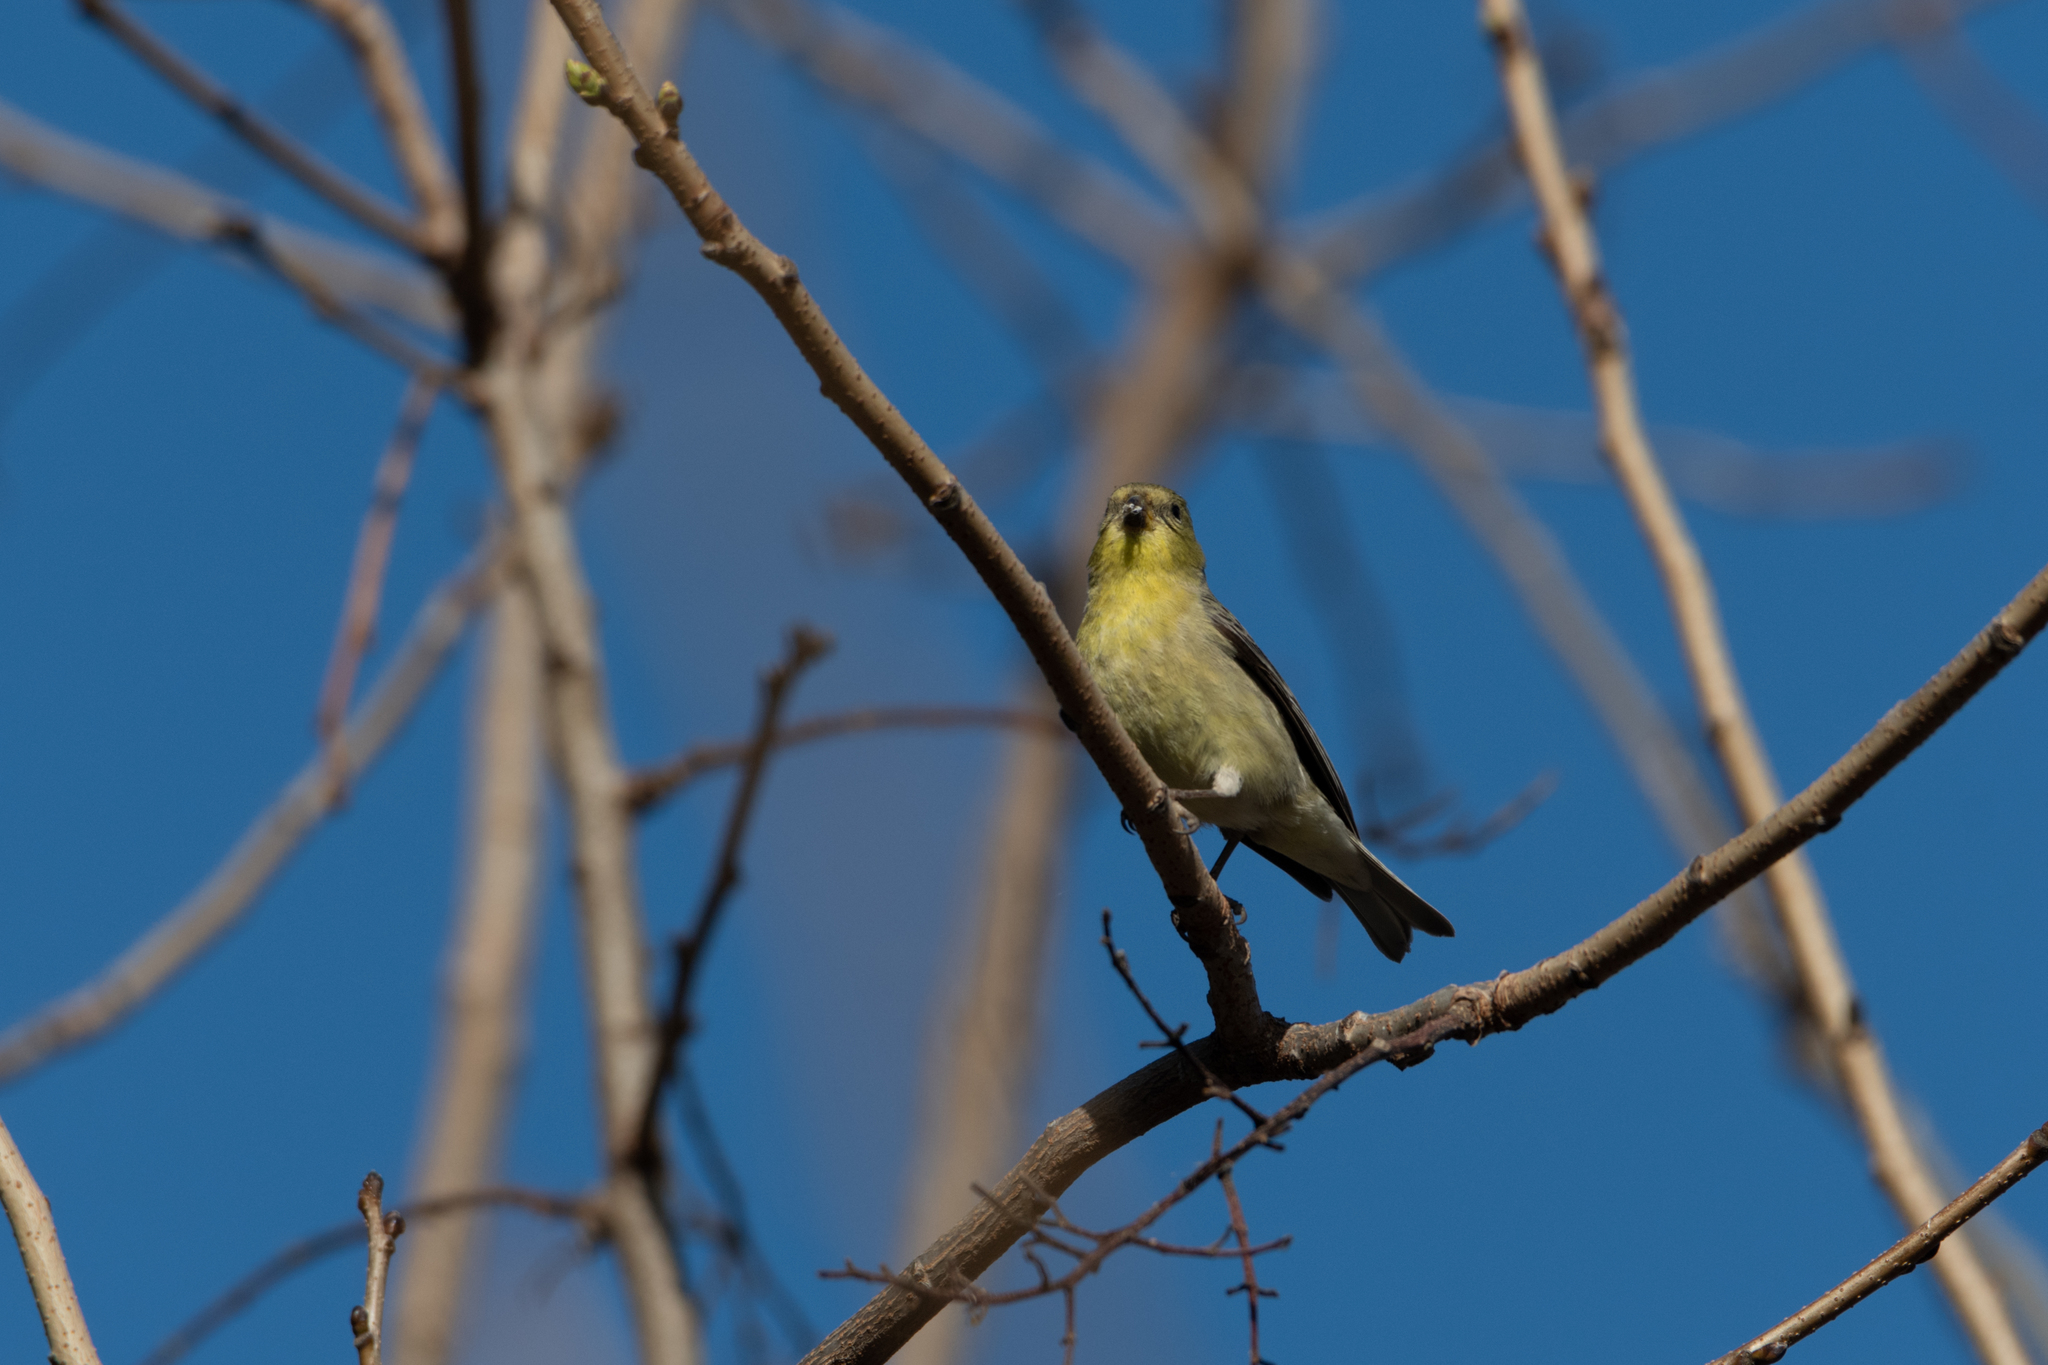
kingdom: Animalia
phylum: Chordata
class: Aves
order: Passeriformes
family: Fringillidae
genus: Spinus
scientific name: Spinus psaltria
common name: Lesser goldfinch
